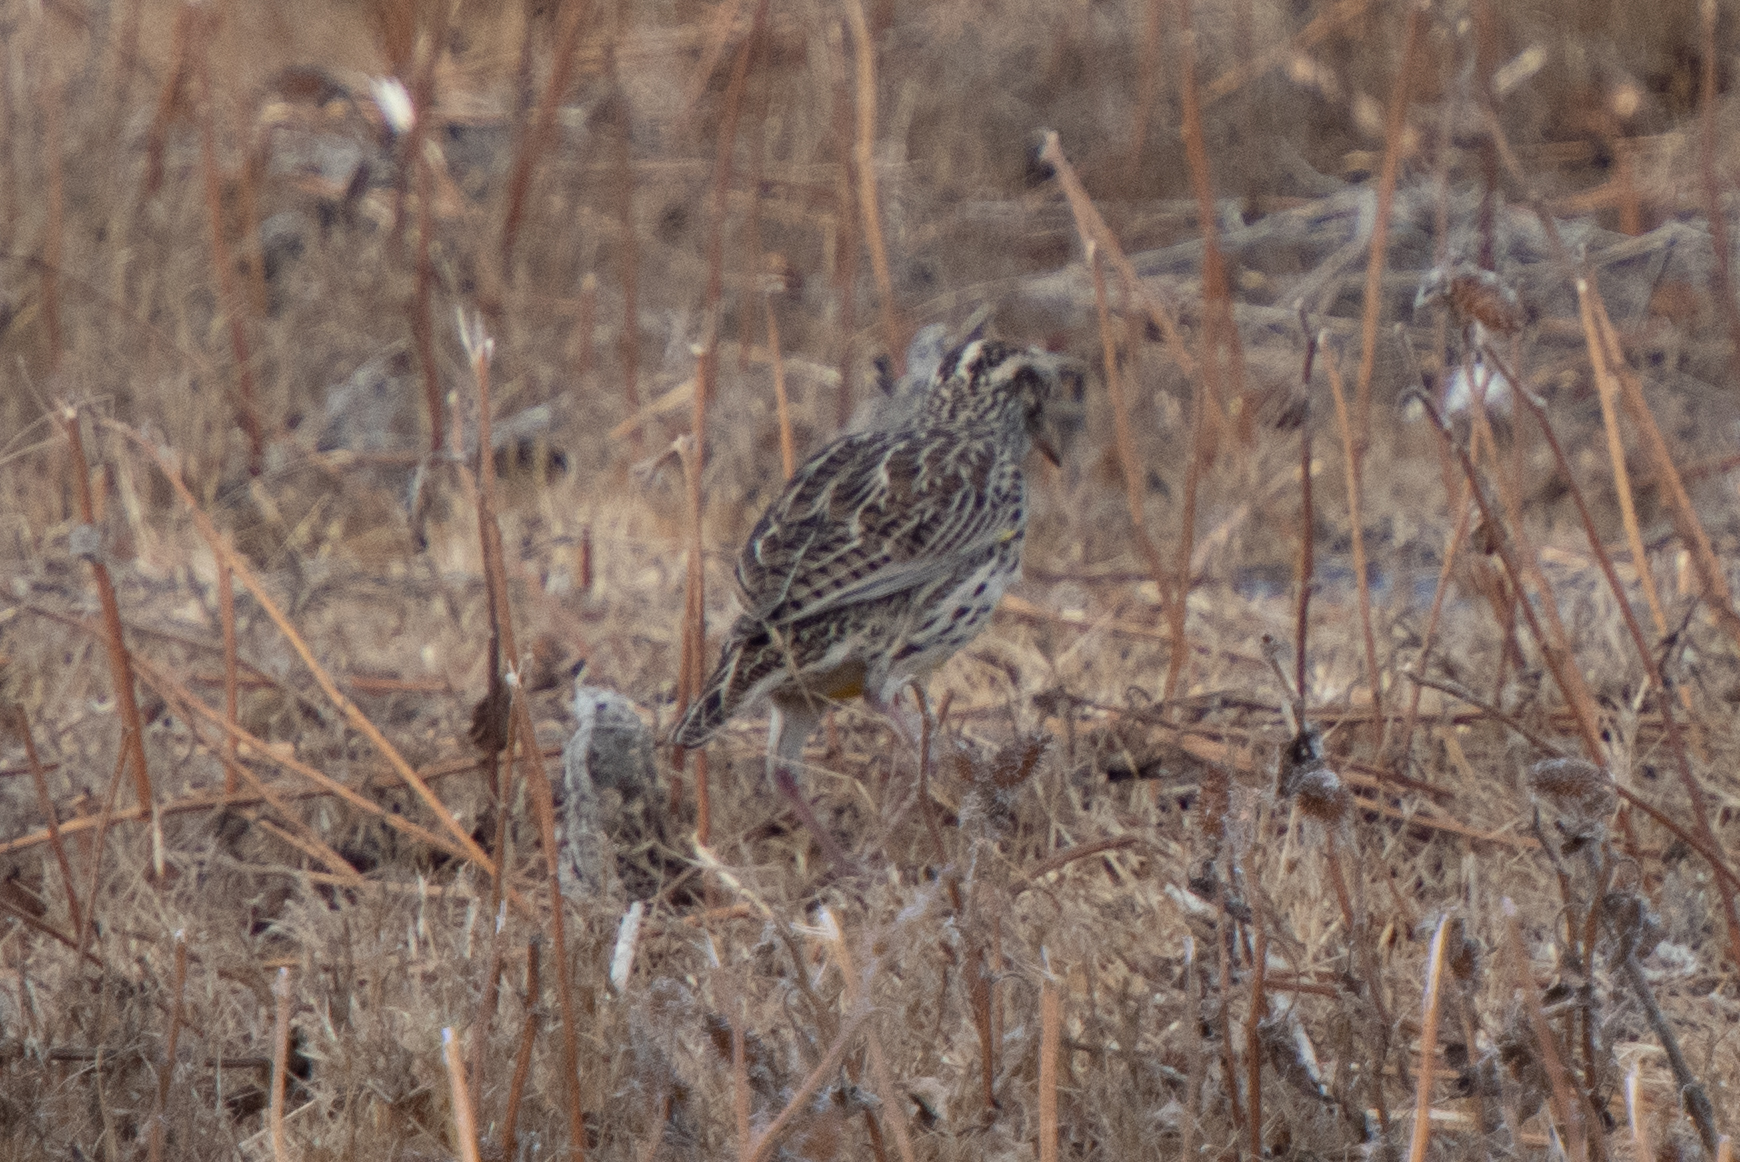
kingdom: Animalia
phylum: Chordata
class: Aves
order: Passeriformes
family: Icteridae
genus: Sturnella
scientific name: Sturnella neglecta
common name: Western meadowlark
